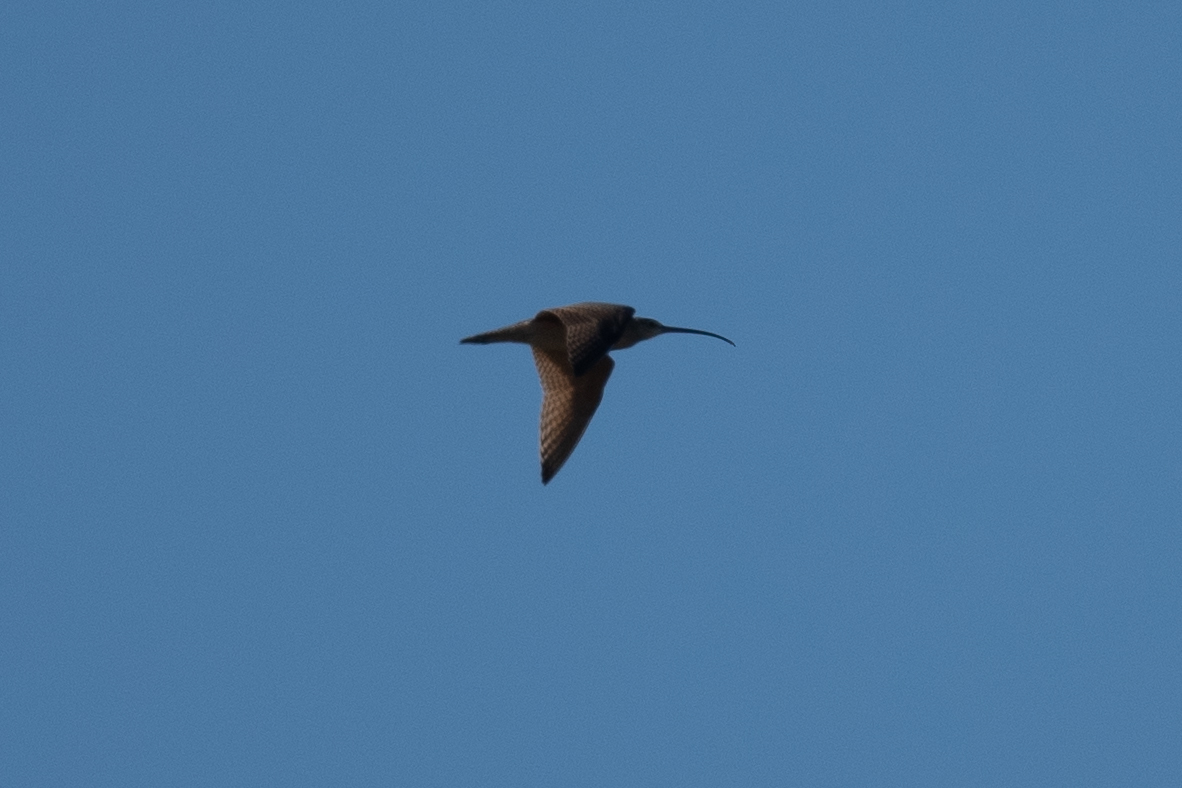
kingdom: Animalia
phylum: Chordata
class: Aves
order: Charadriiformes
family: Scolopacidae
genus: Numenius
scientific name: Numenius americanus
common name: Long-billed curlew
